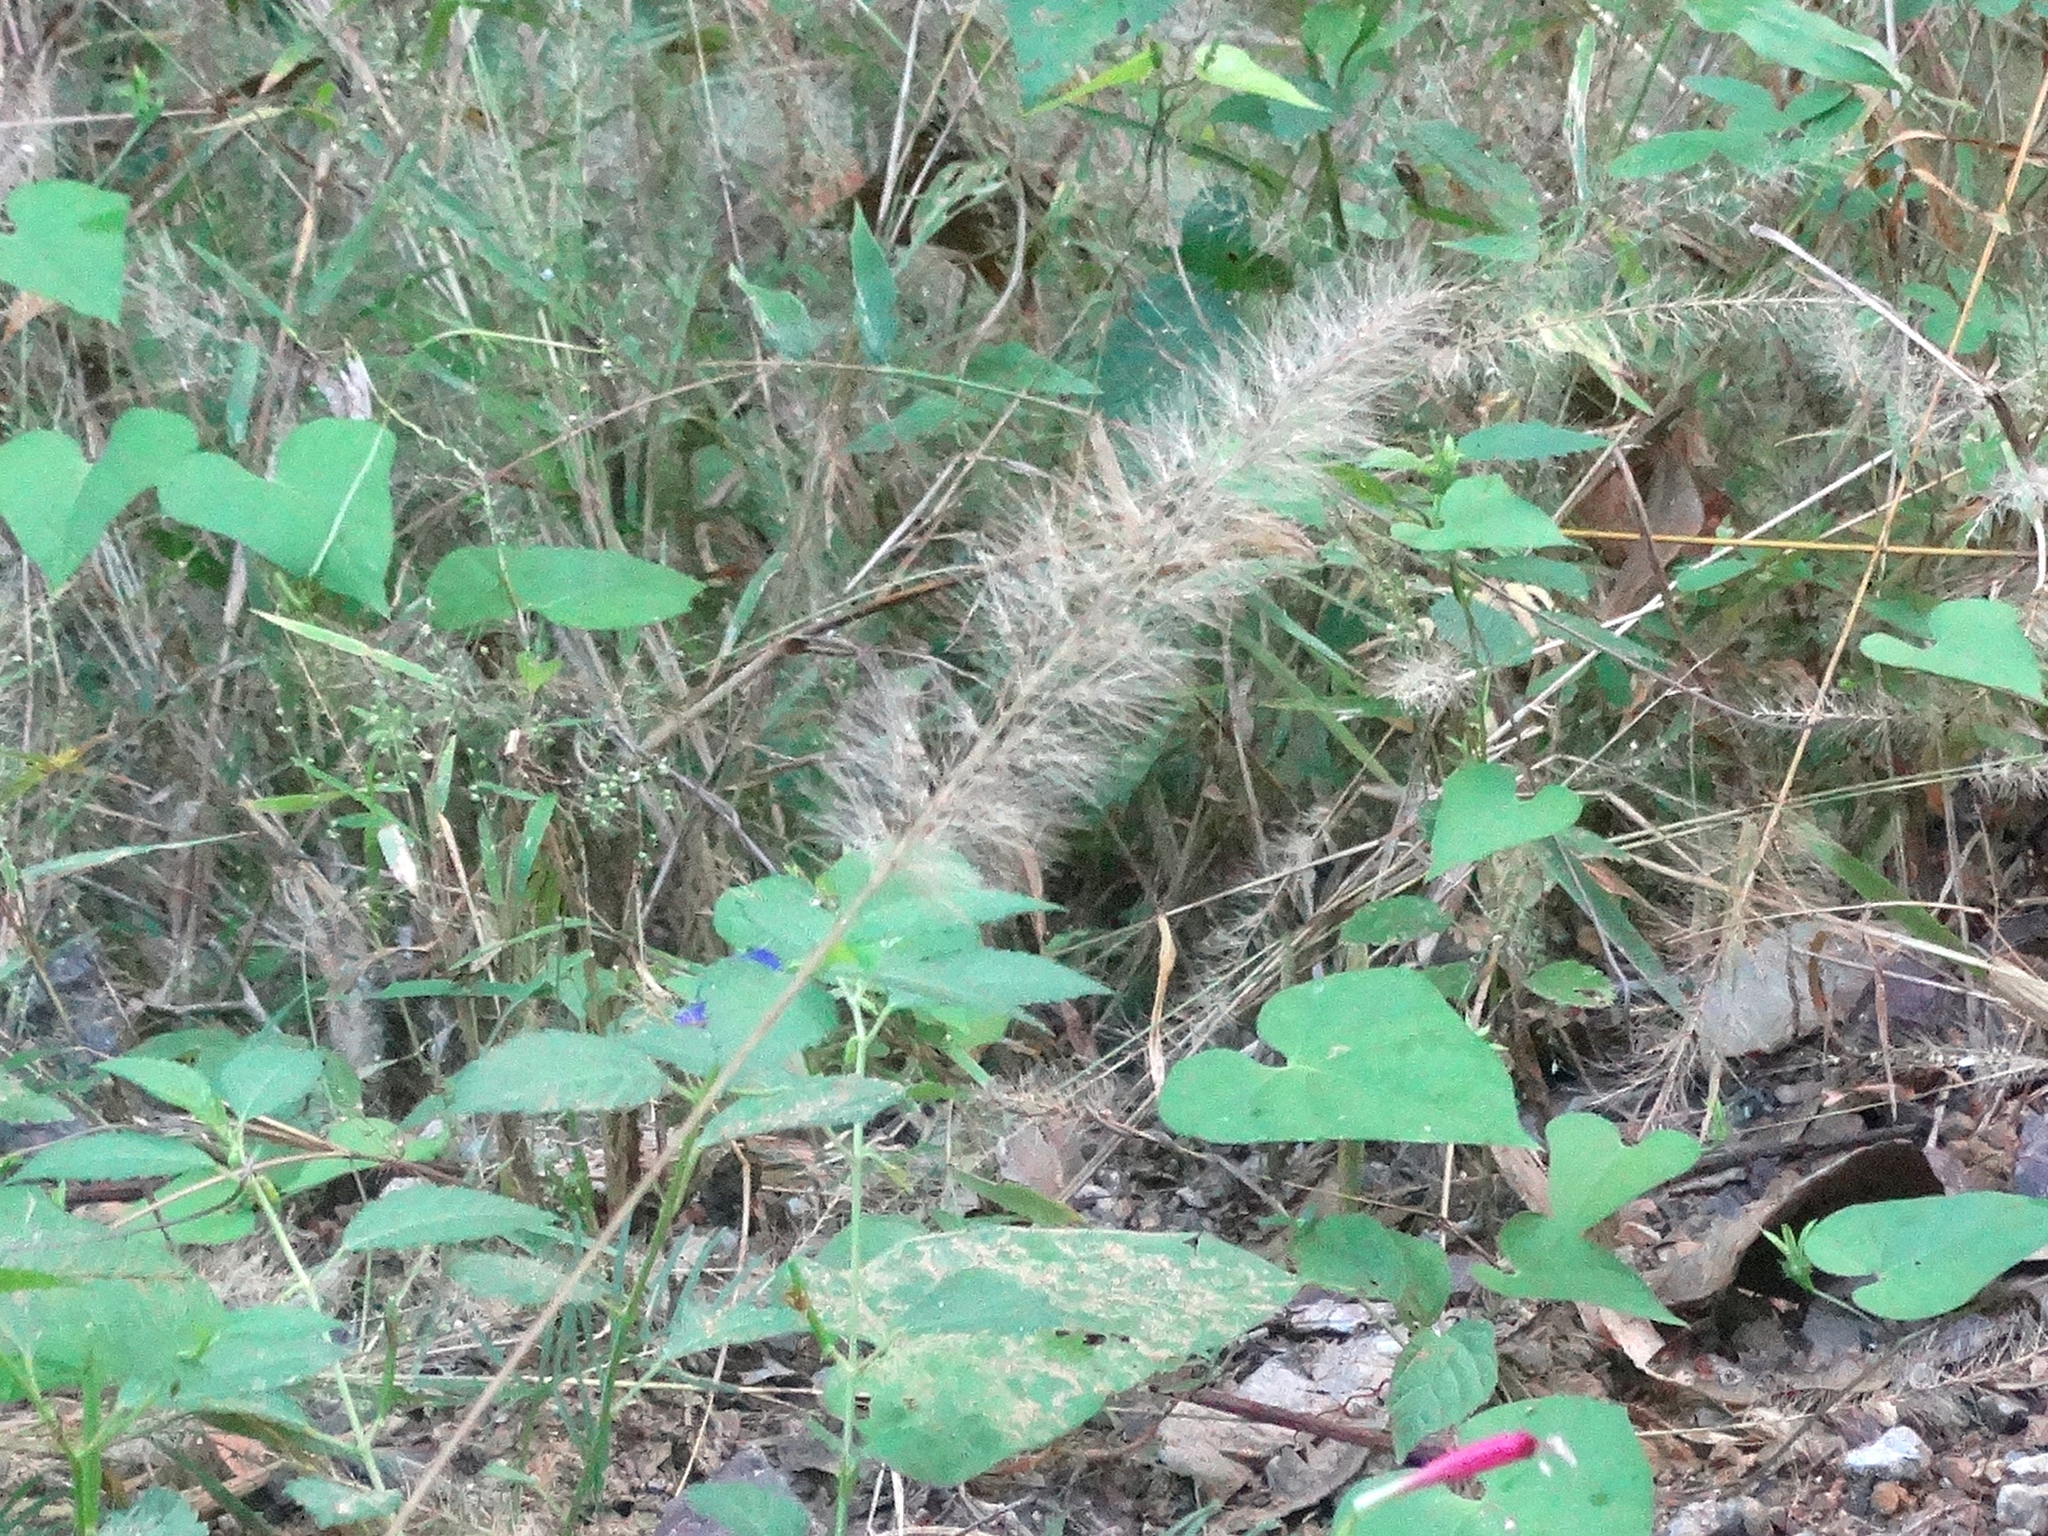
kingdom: Plantae
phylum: Tracheophyta
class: Liliopsida
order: Poales
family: Poaceae
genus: Setaria
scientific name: Setaria
